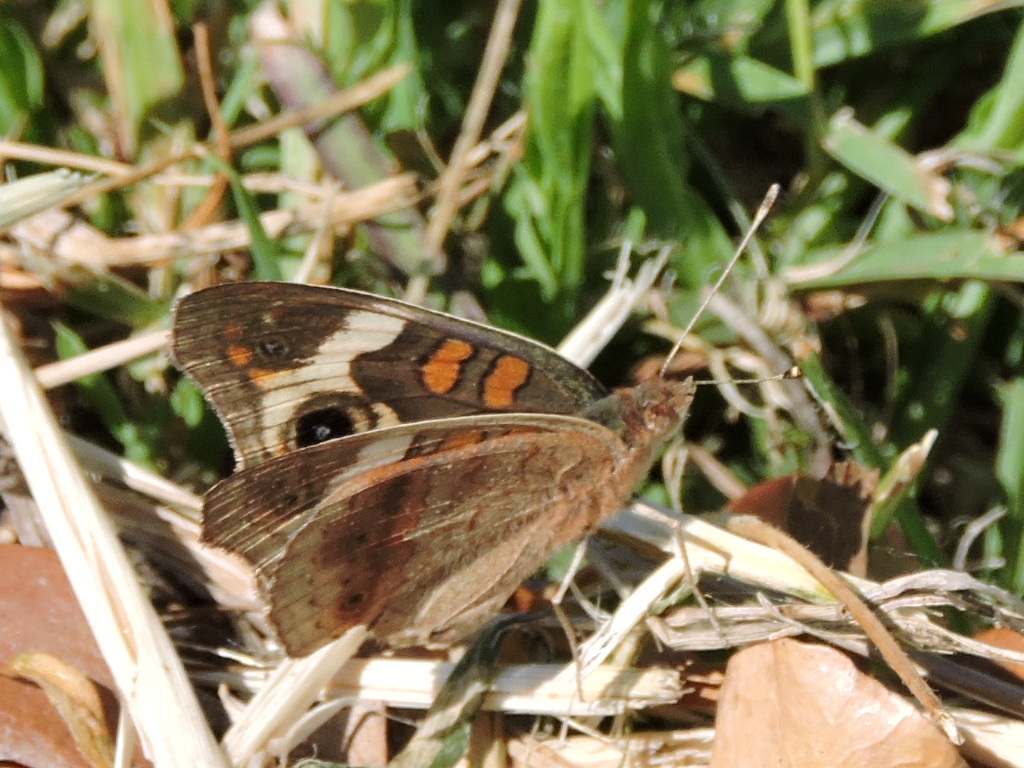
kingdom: Animalia
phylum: Arthropoda
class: Insecta
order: Lepidoptera
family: Nymphalidae
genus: Junonia
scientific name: Junonia coenia
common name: Common buckeye
